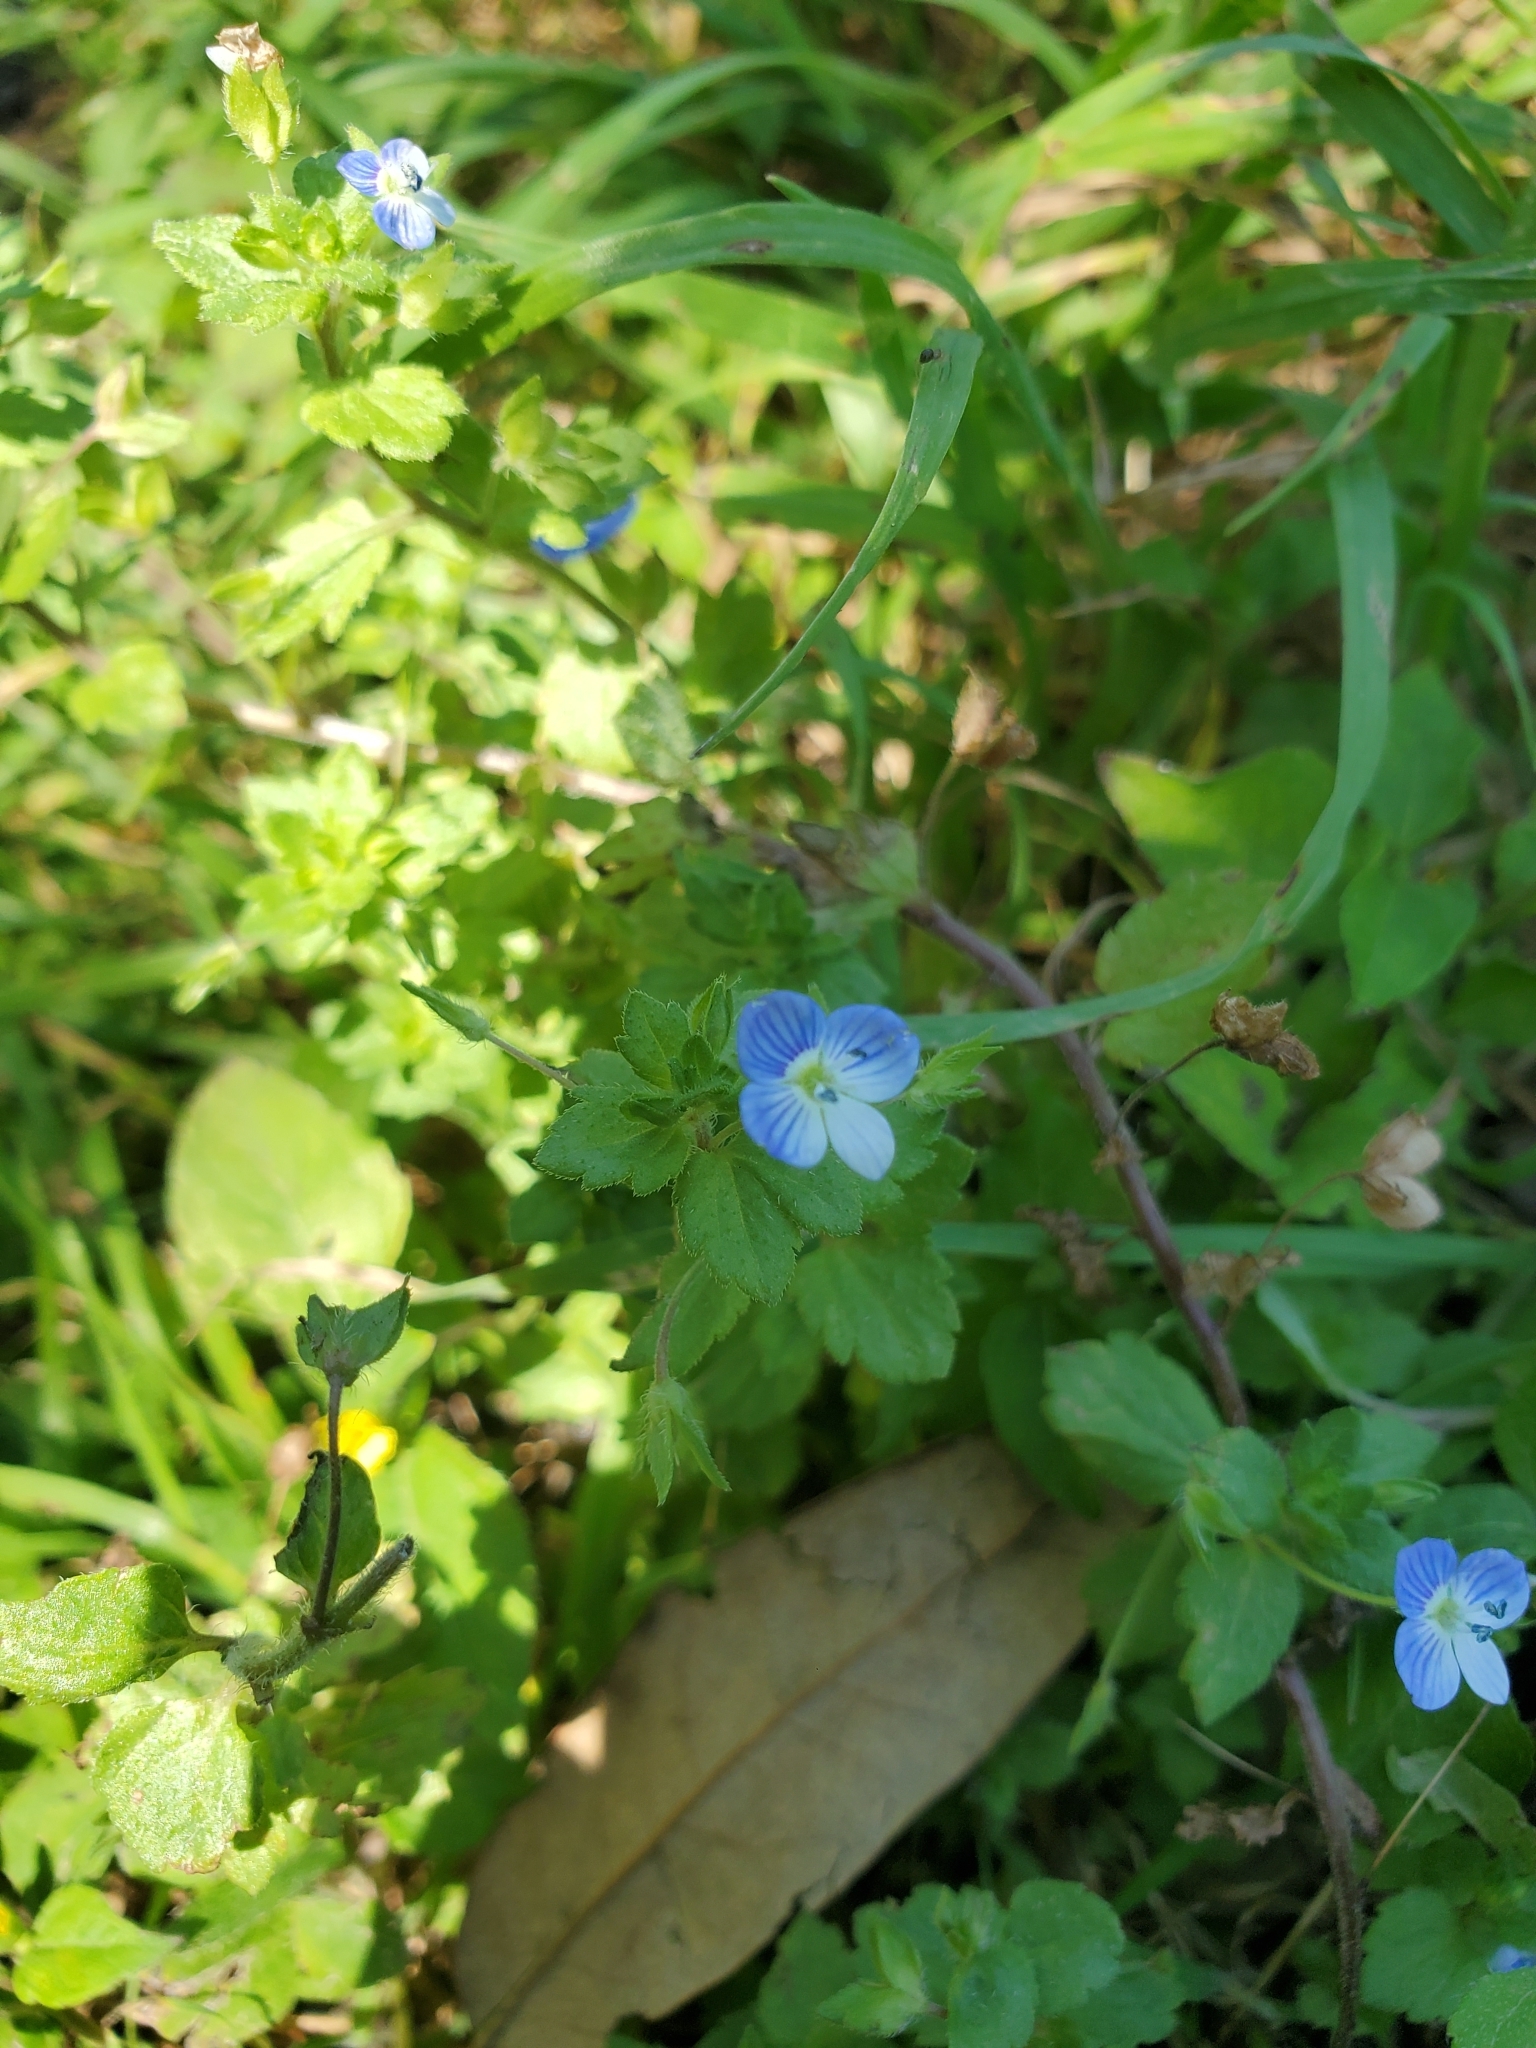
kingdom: Plantae
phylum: Tracheophyta
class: Magnoliopsida
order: Lamiales
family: Plantaginaceae
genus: Veronica
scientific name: Veronica persica
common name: Common field-speedwell
